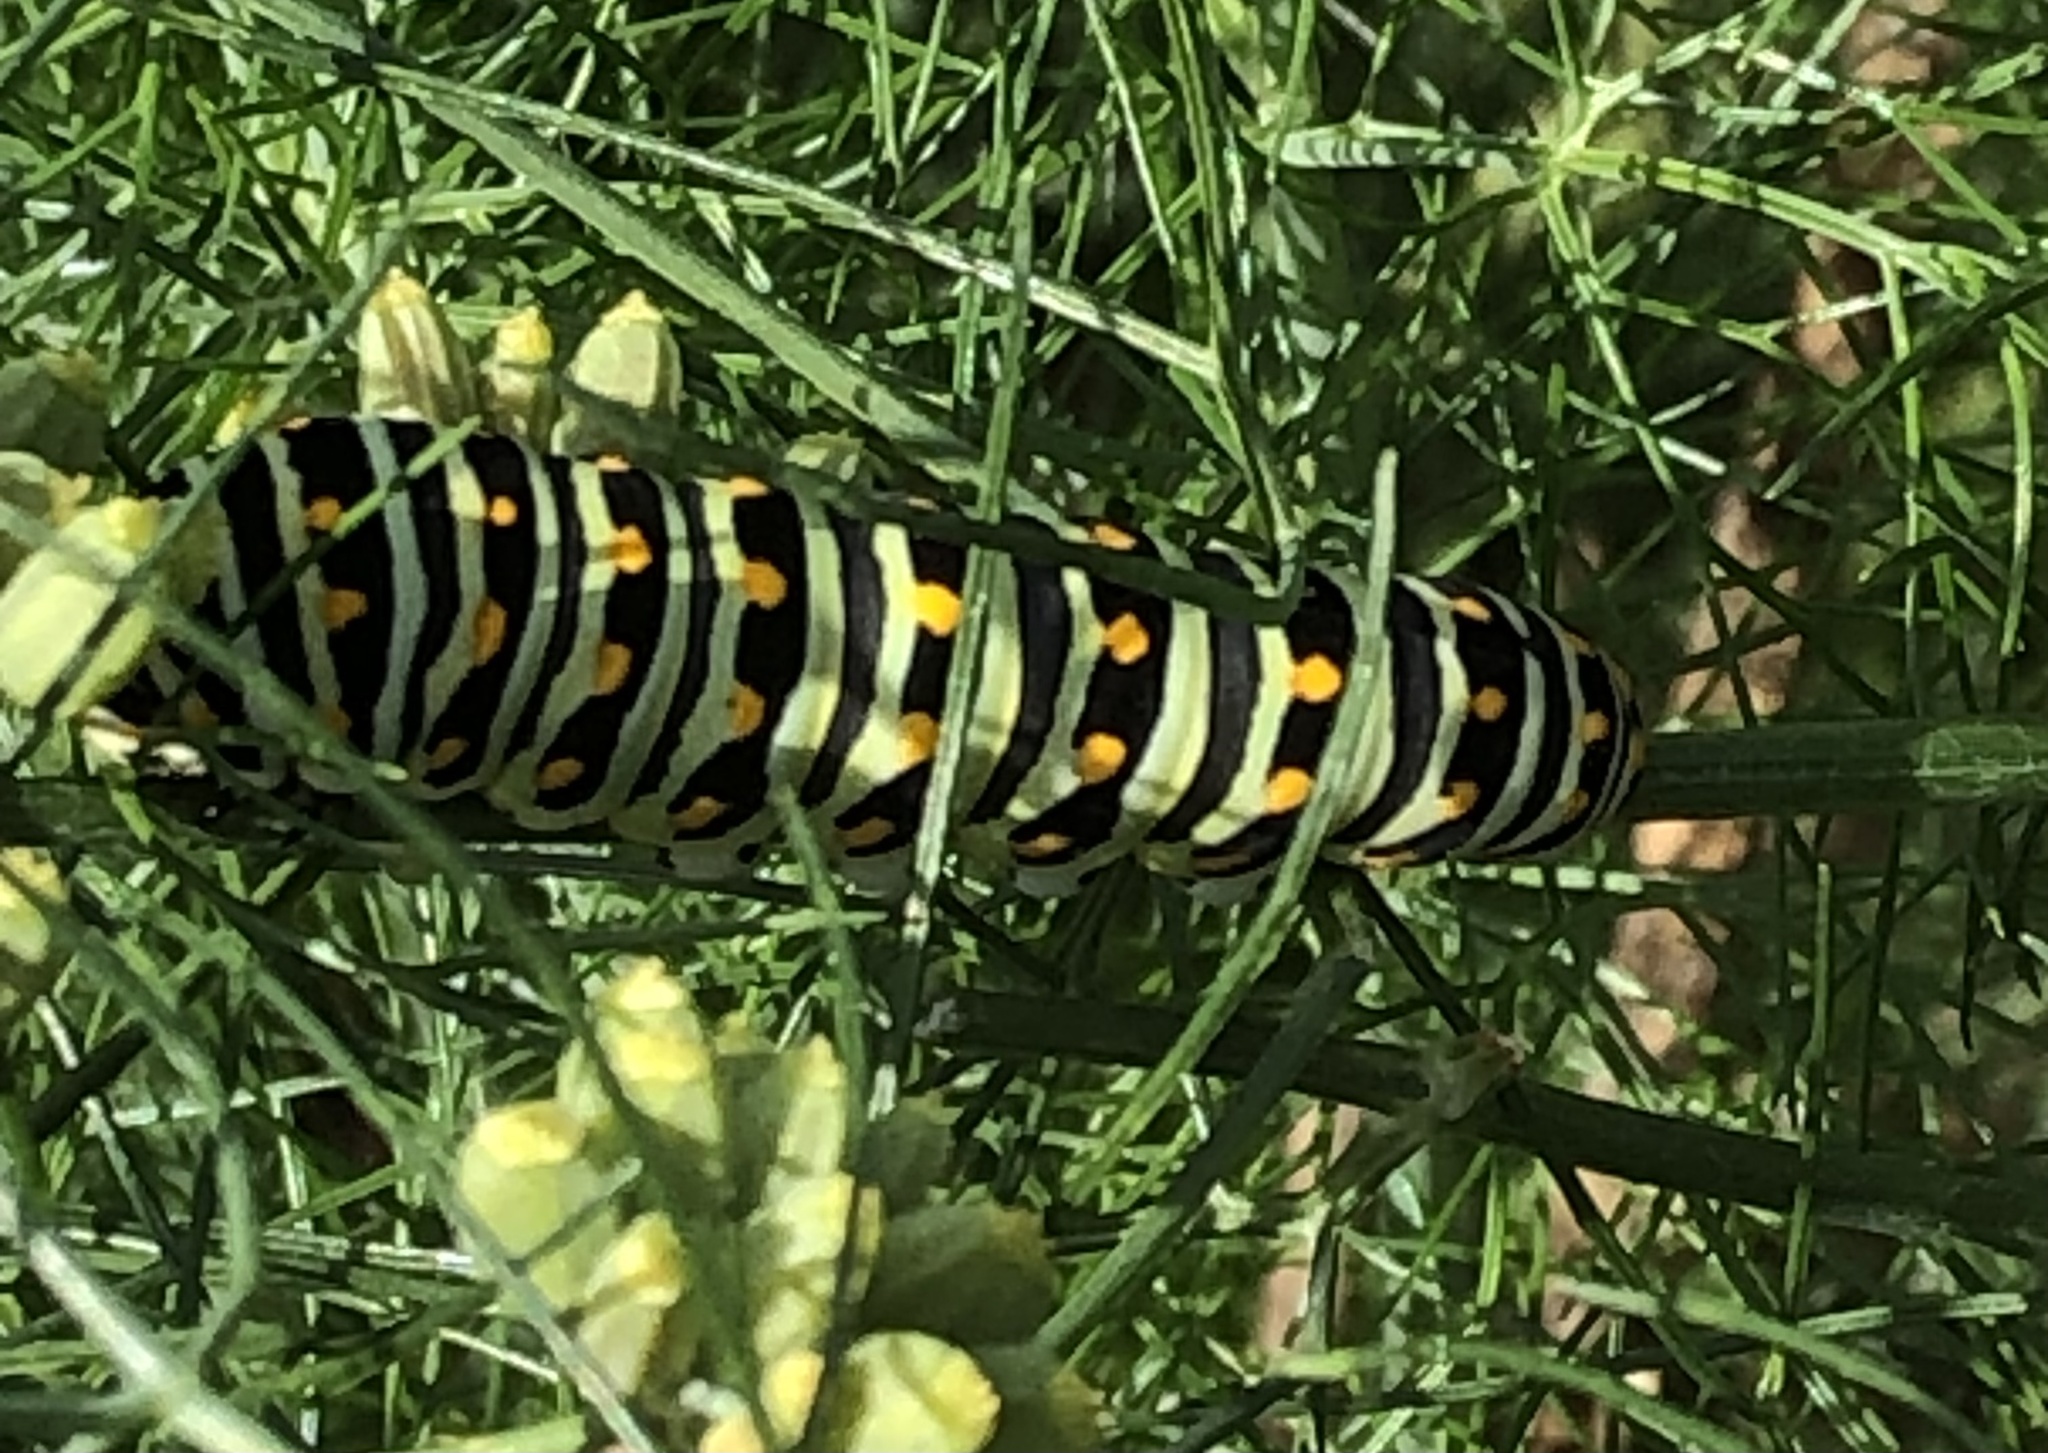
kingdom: Animalia
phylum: Arthropoda
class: Insecta
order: Lepidoptera
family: Papilionidae
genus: Papilio
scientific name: Papilio polyxenes
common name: Black swallowtail
